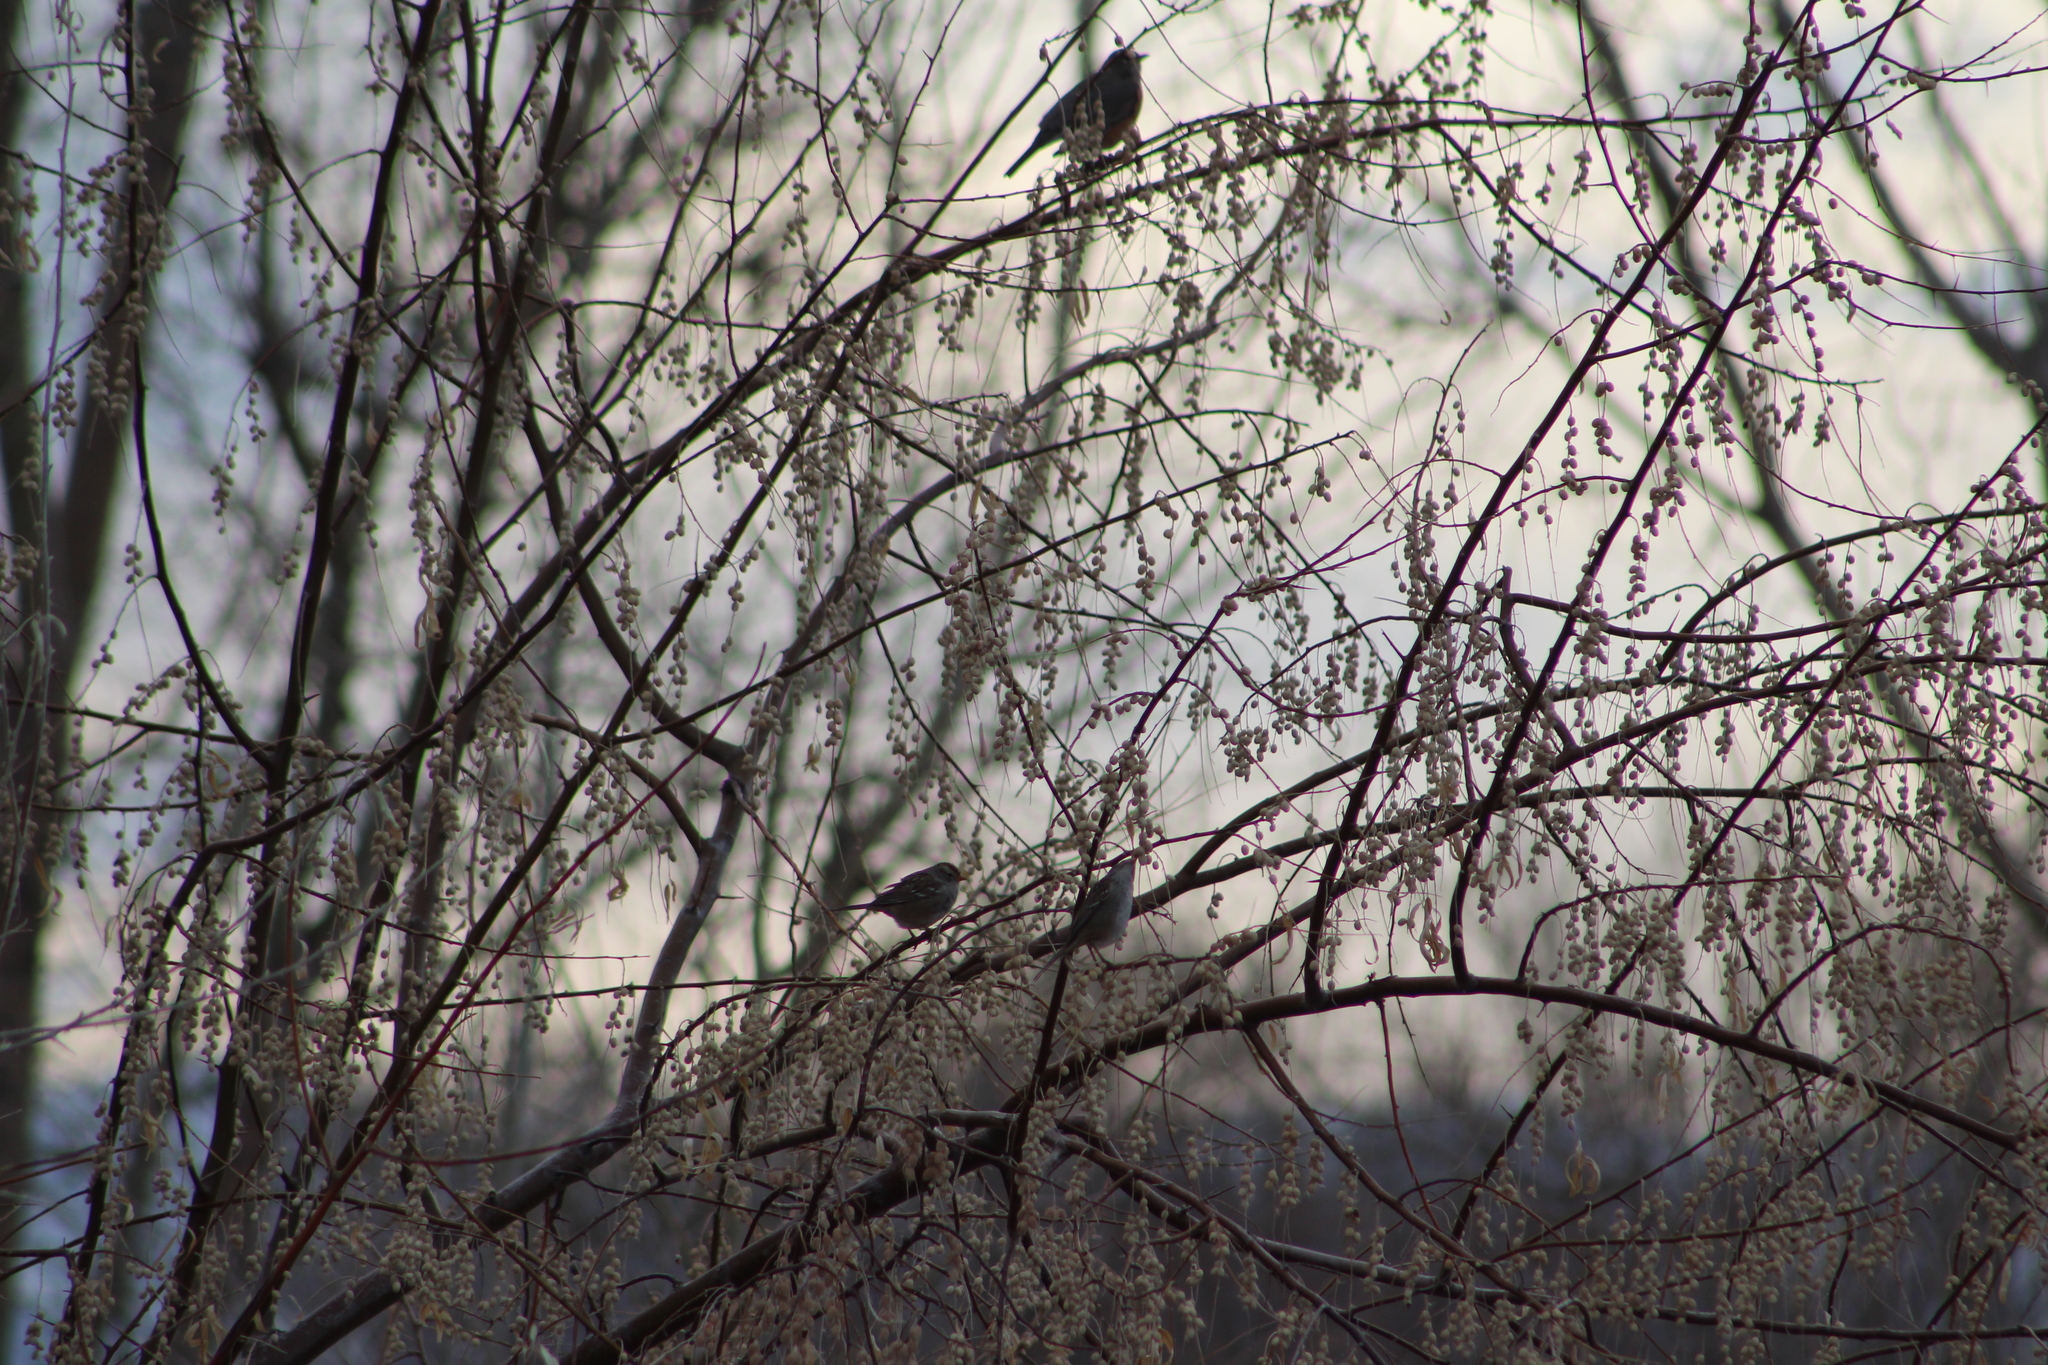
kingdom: Animalia
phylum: Chordata
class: Aves
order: Passeriformes
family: Passerellidae
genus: Zonotrichia
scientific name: Zonotrichia leucophrys
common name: White-crowned sparrow
